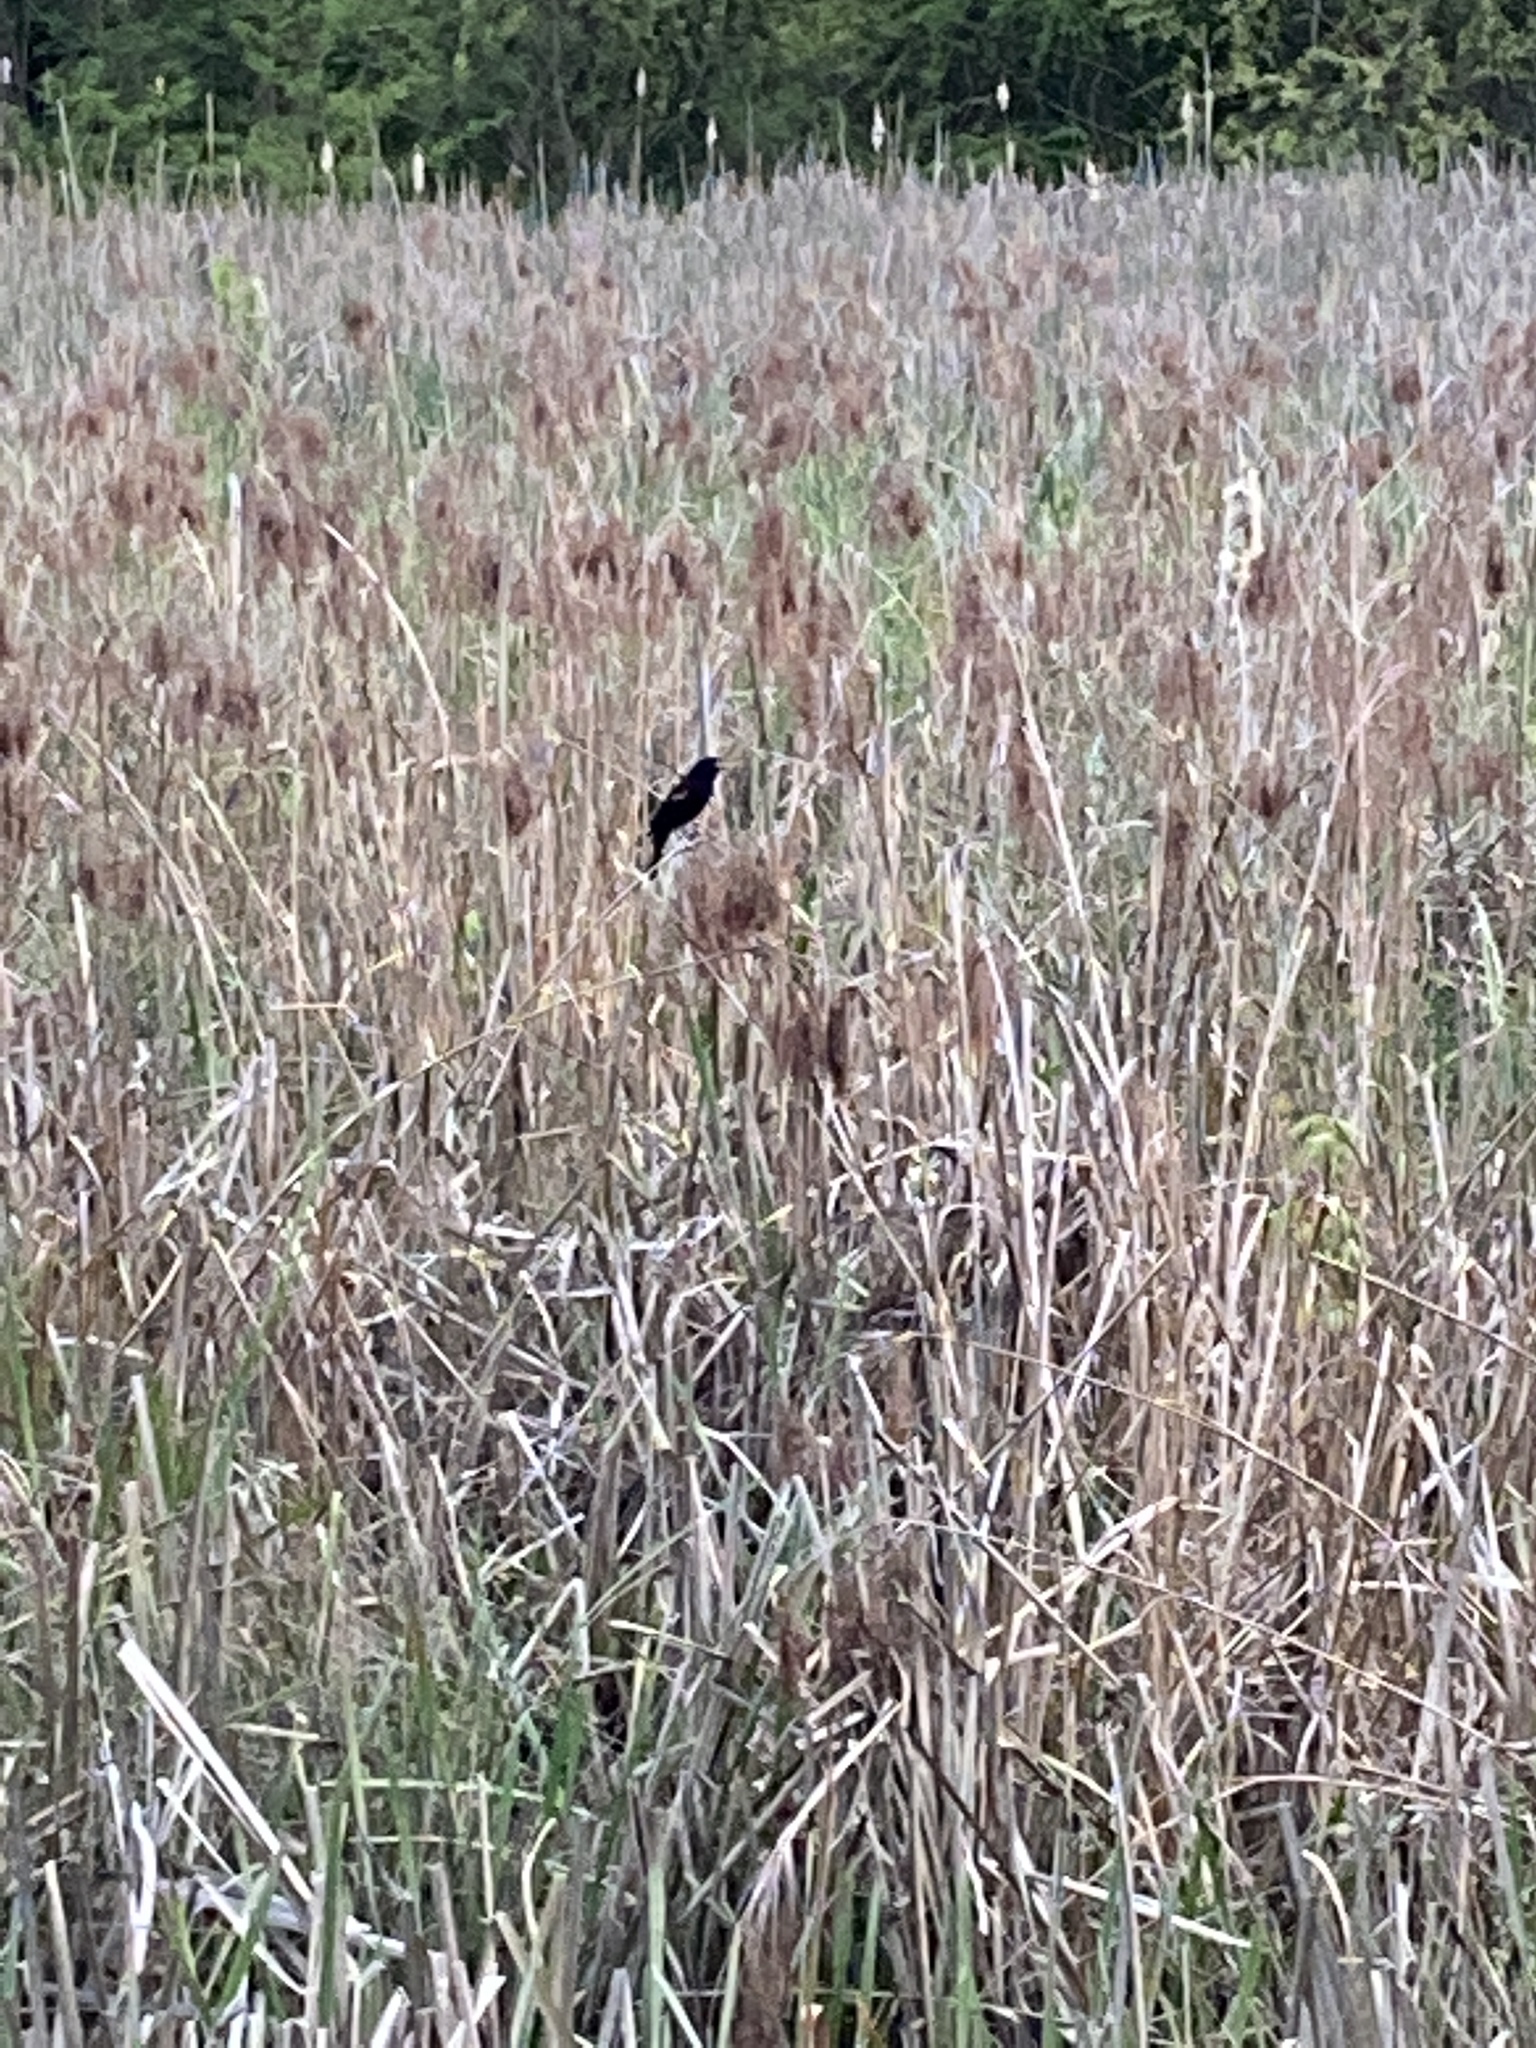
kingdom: Animalia
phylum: Chordata
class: Aves
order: Passeriformes
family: Icteridae
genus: Agelaius
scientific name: Agelaius phoeniceus
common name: Red-winged blackbird
